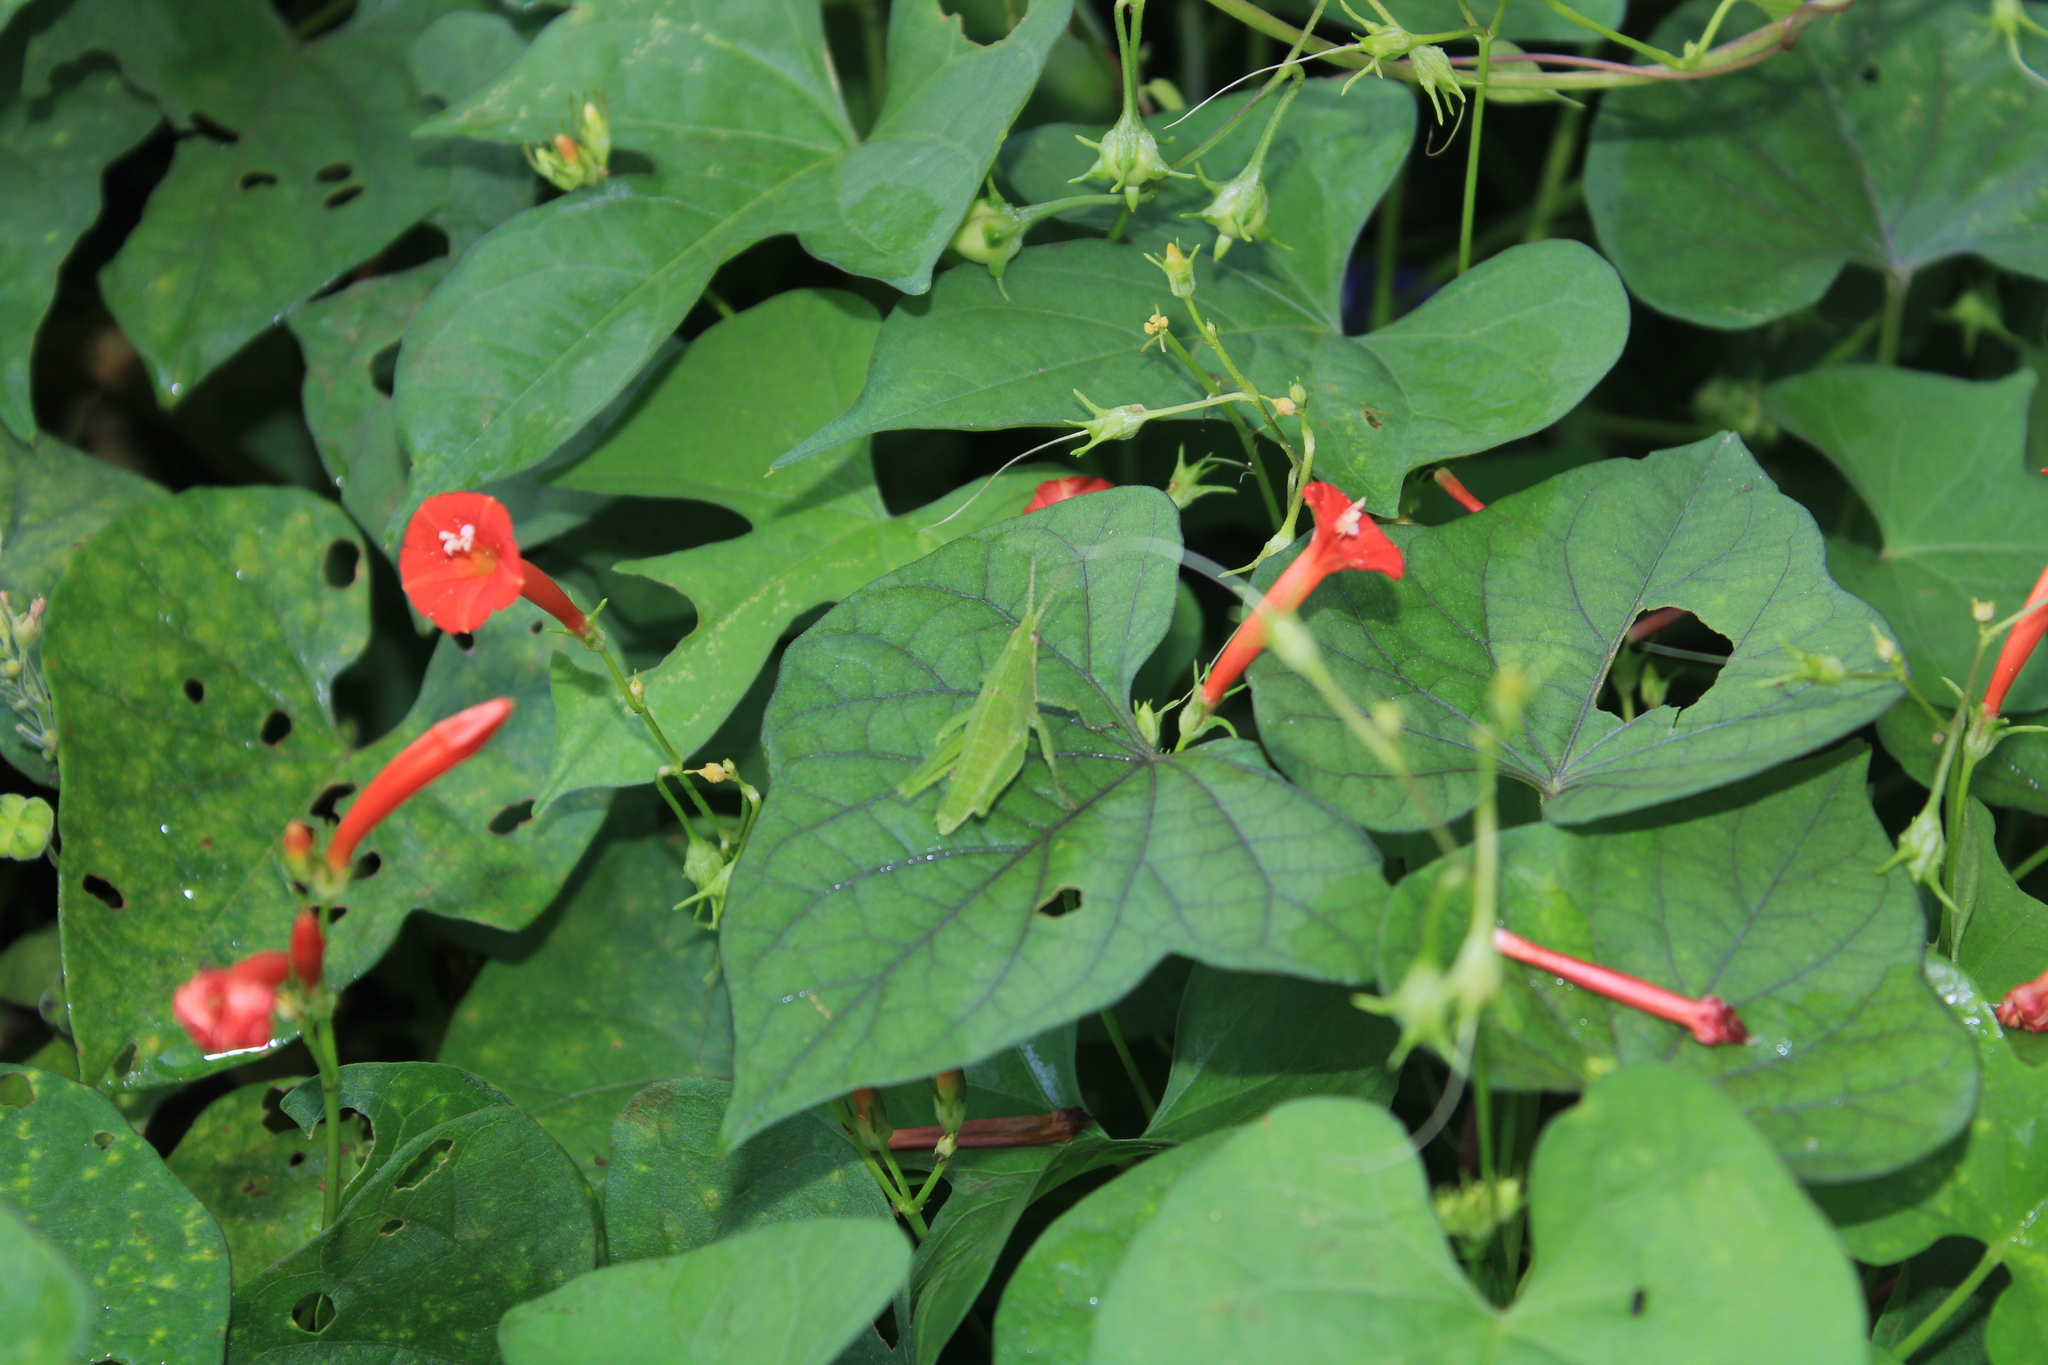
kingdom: Plantae
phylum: Tracheophyta
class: Magnoliopsida
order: Solanales
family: Convolvulaceae
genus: Ipomoea
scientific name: Ipomoea hederifolia
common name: Ivy-leaf morning-glory
